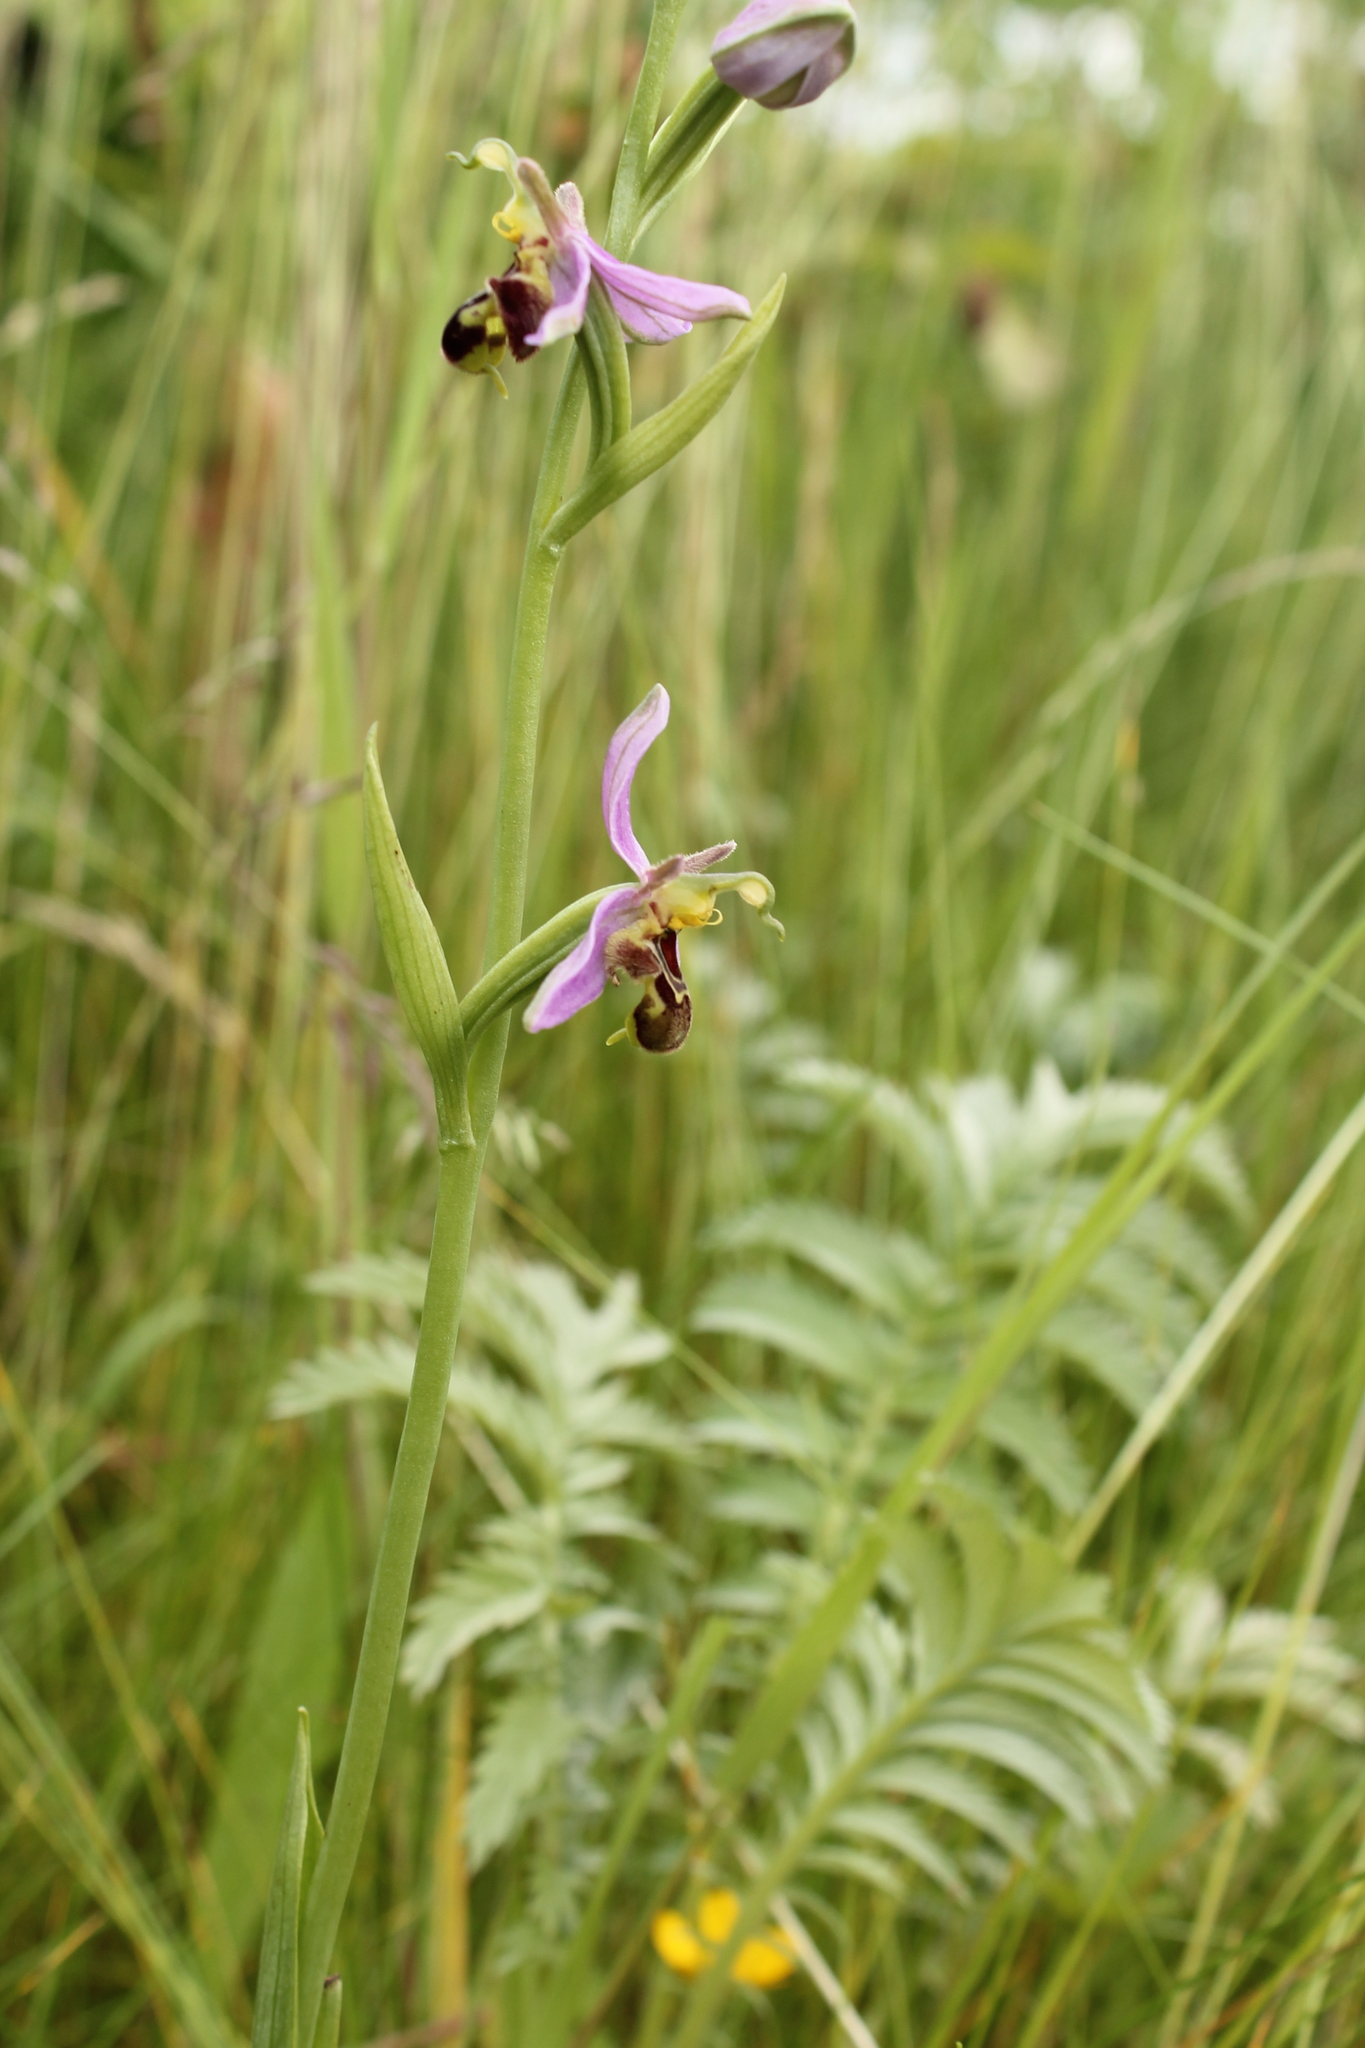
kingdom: Plantae
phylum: Tracheophyta
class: Liliopsida
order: Asparagales
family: Orchidaceae
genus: Ophrys
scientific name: Ophrys apifera
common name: Bee orchid
